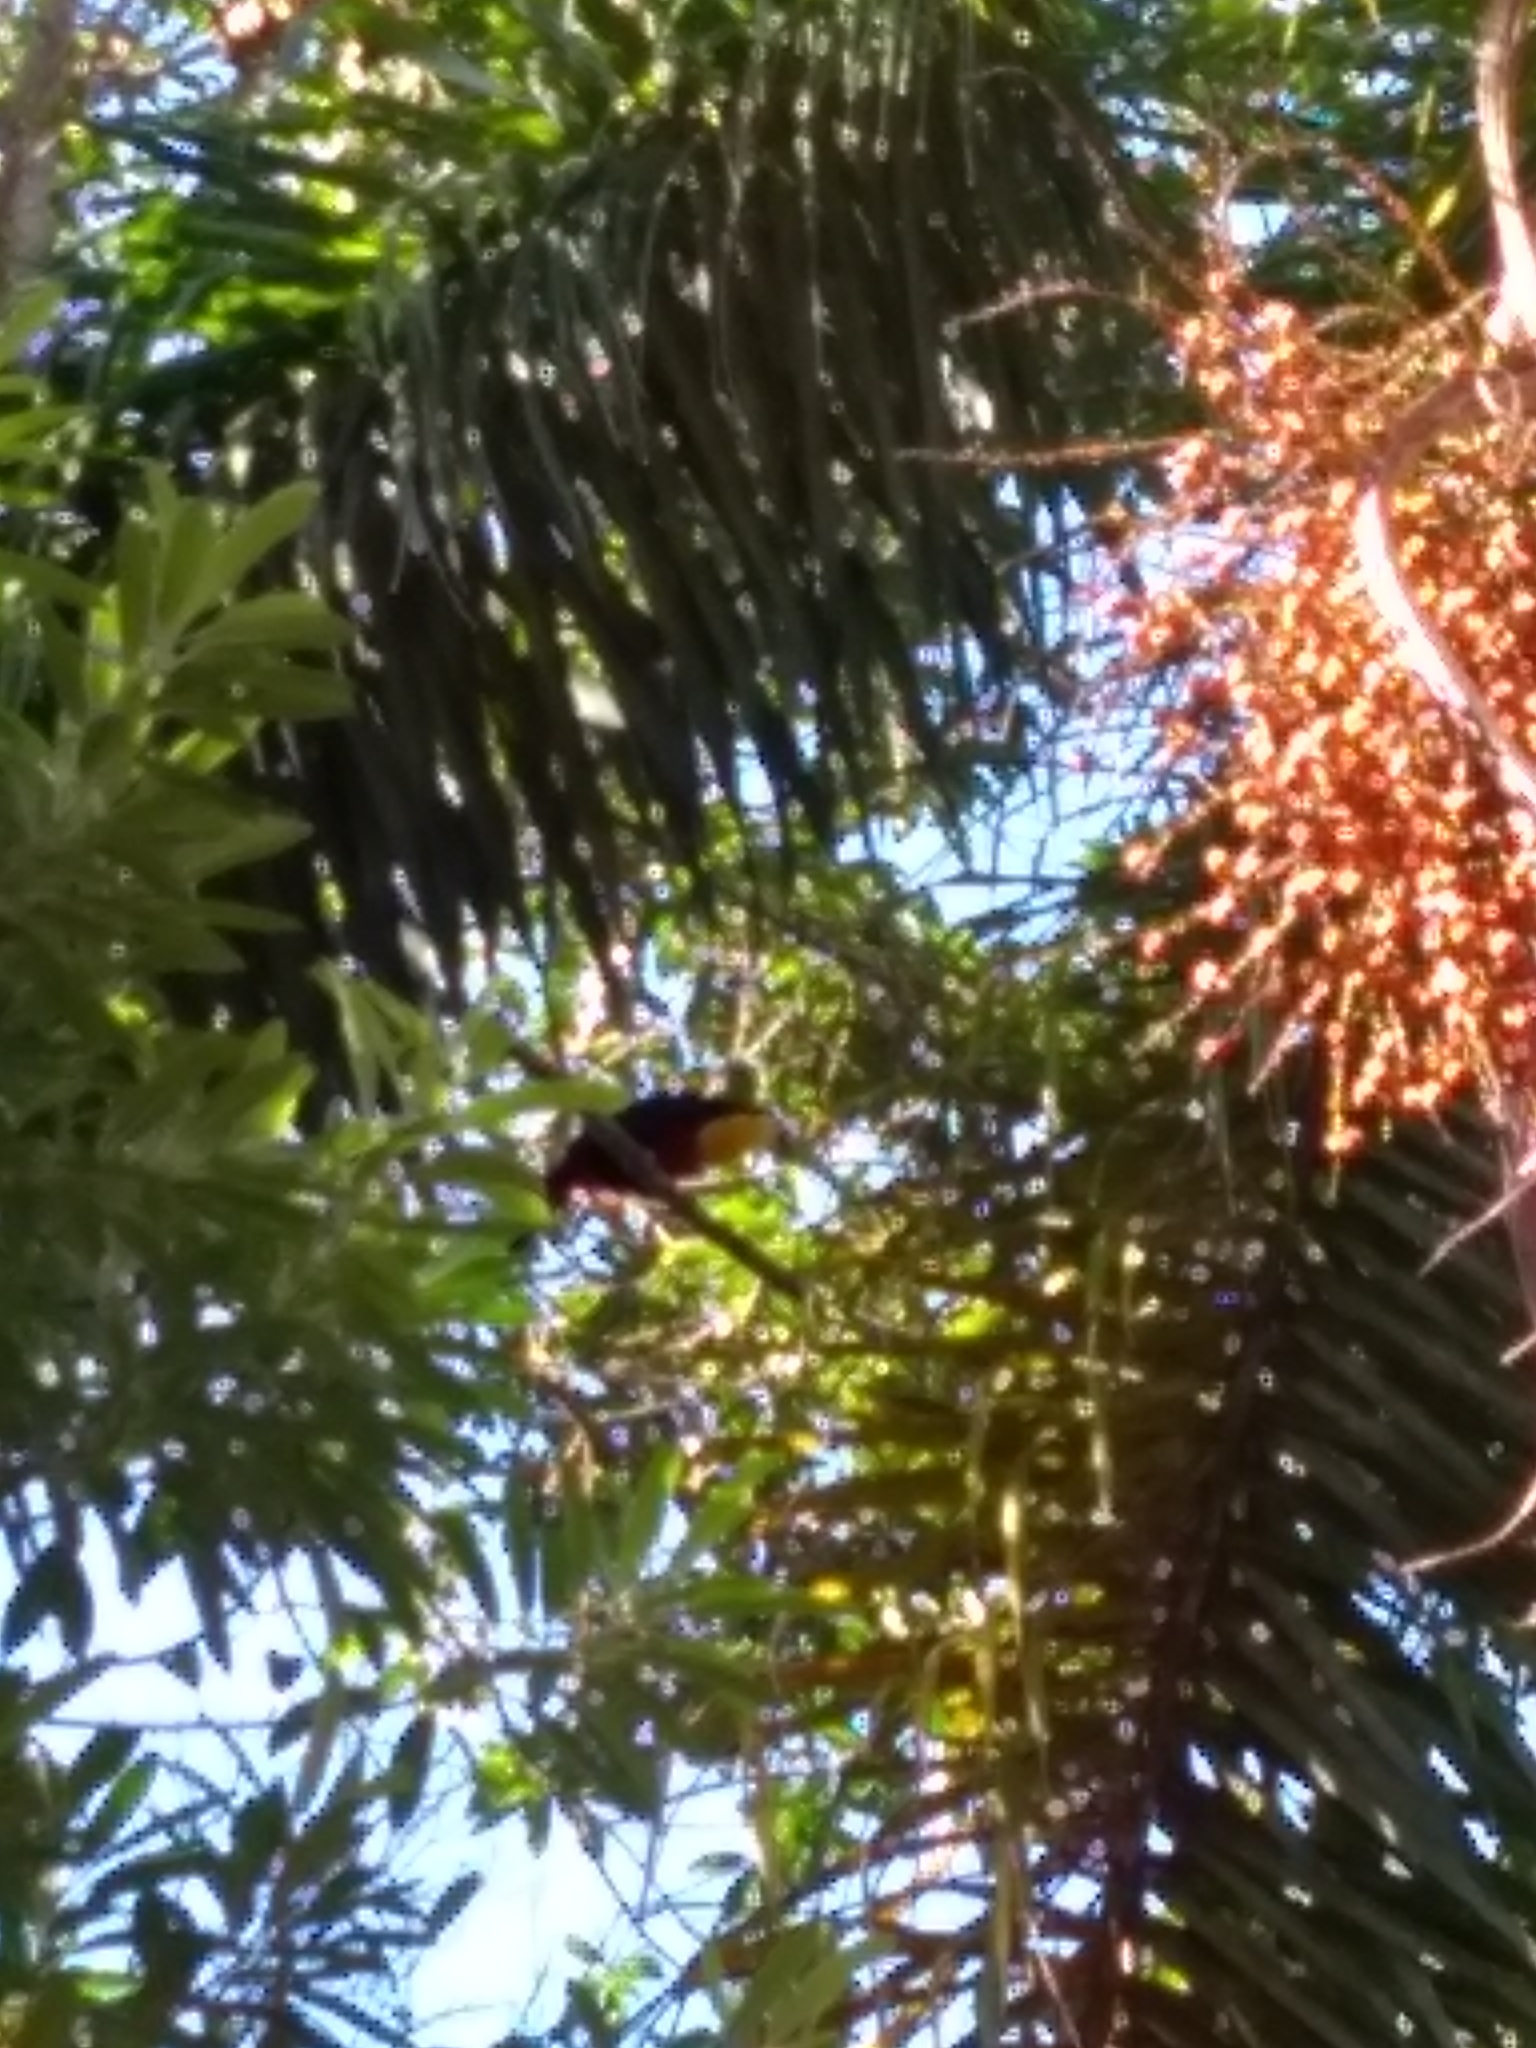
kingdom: Animalia
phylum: Chordata
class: Aves
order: Piciformes
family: Ramphastidae
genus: Ramphastos
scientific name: Ramphastos dicolorus
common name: Green-billed toucan
